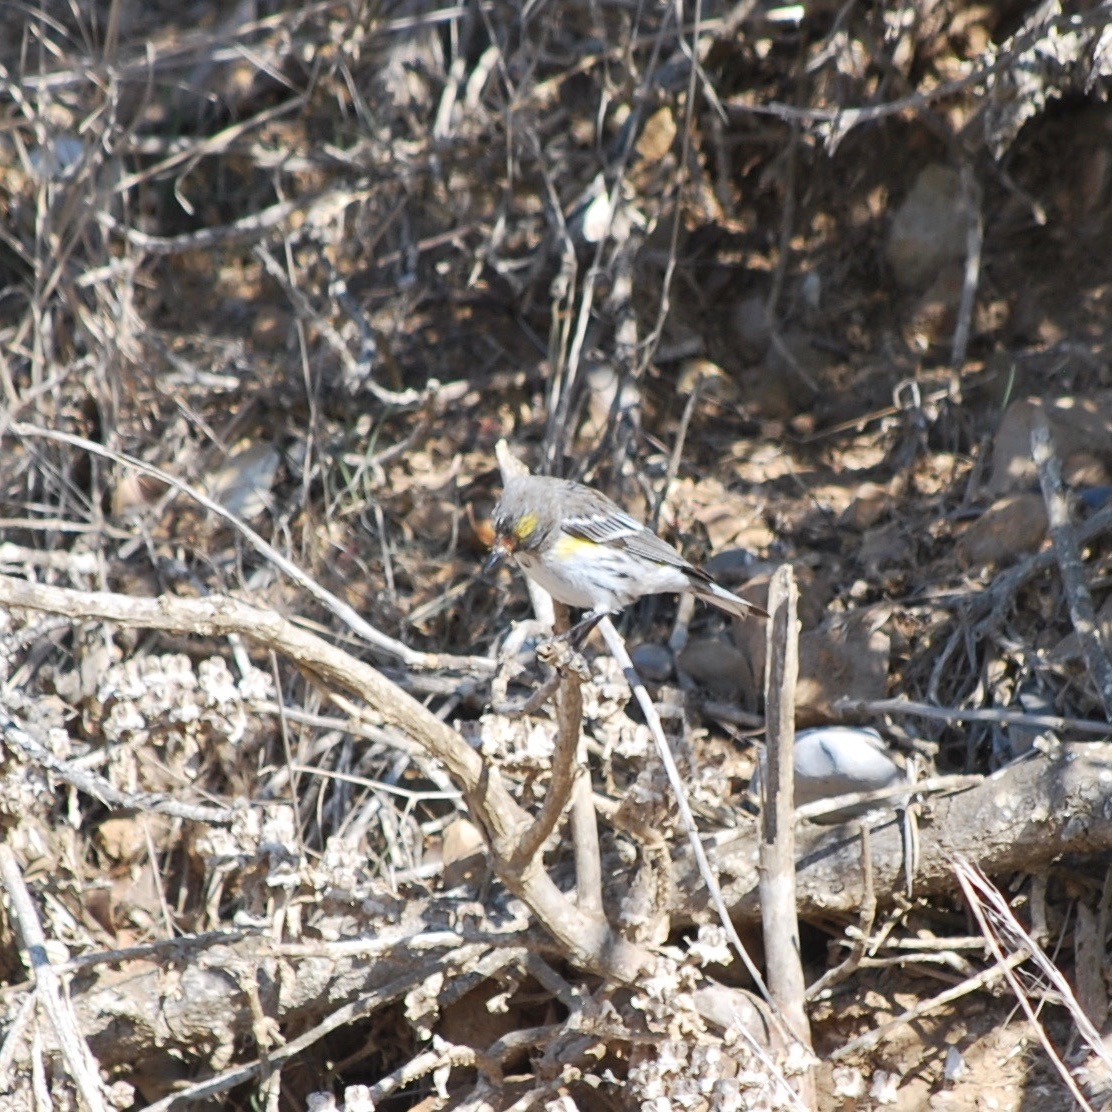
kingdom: Animalia
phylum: Chordata
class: Aves
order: Passeriformes
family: Parulidae
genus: Setophaga
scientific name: Setophaga coronata
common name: Myrtle warbler
